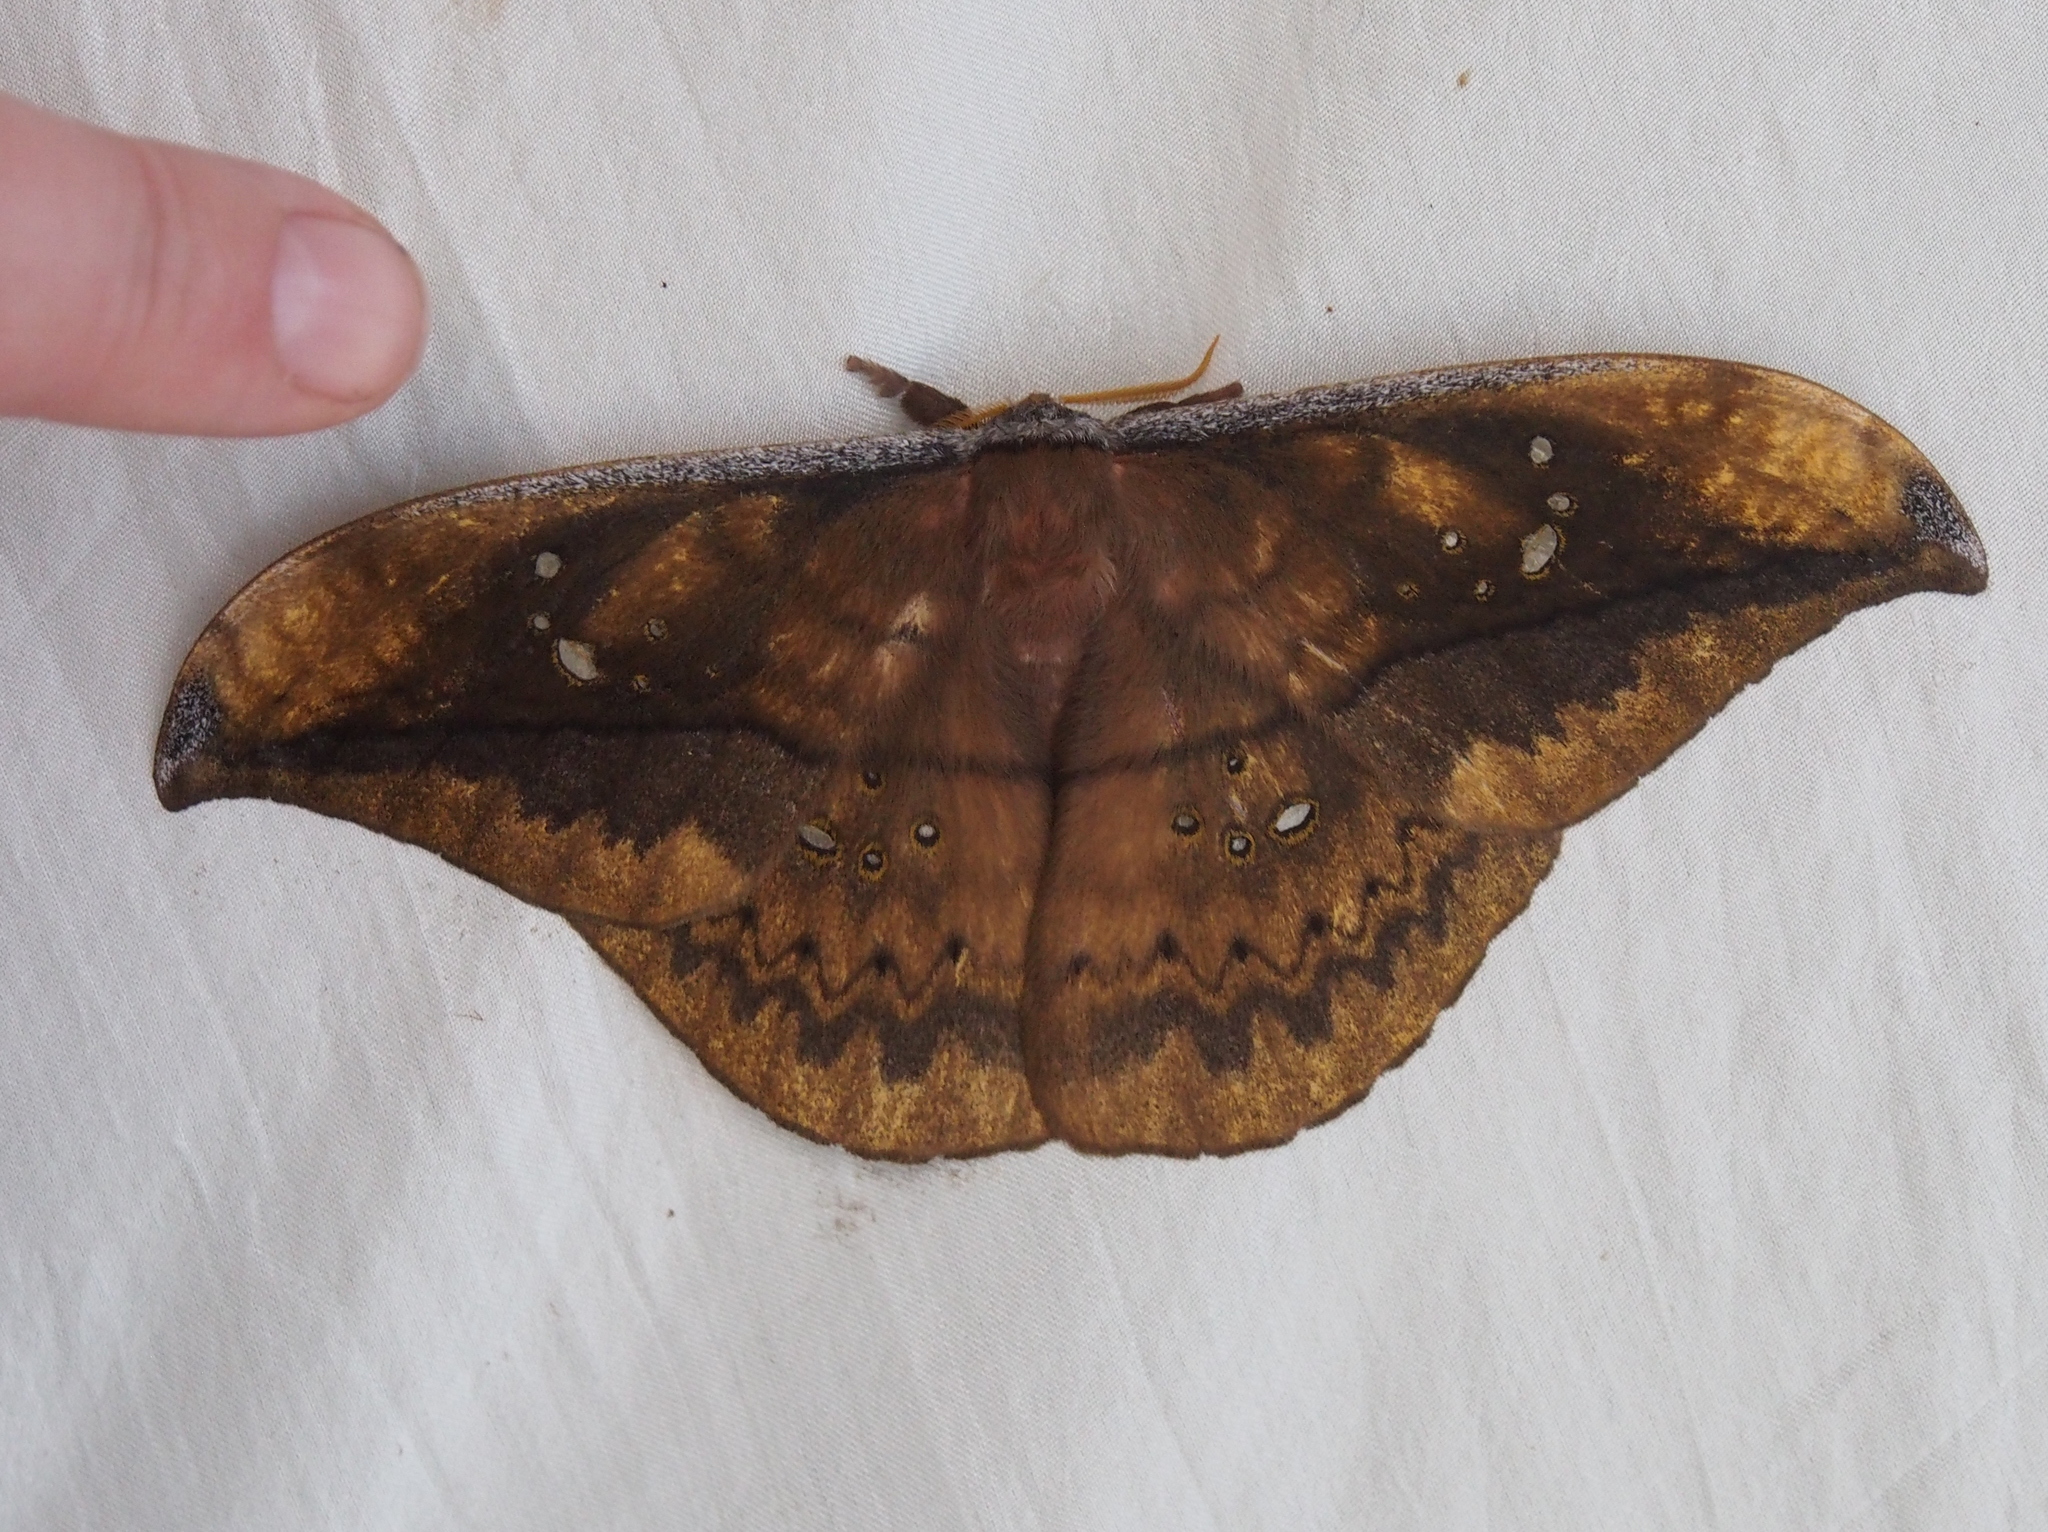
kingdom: Animalia
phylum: Arthropoda
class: Insecta
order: Lepidoptera
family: Saturniidae
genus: Copaxa
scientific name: Copaxa multifenestrata
